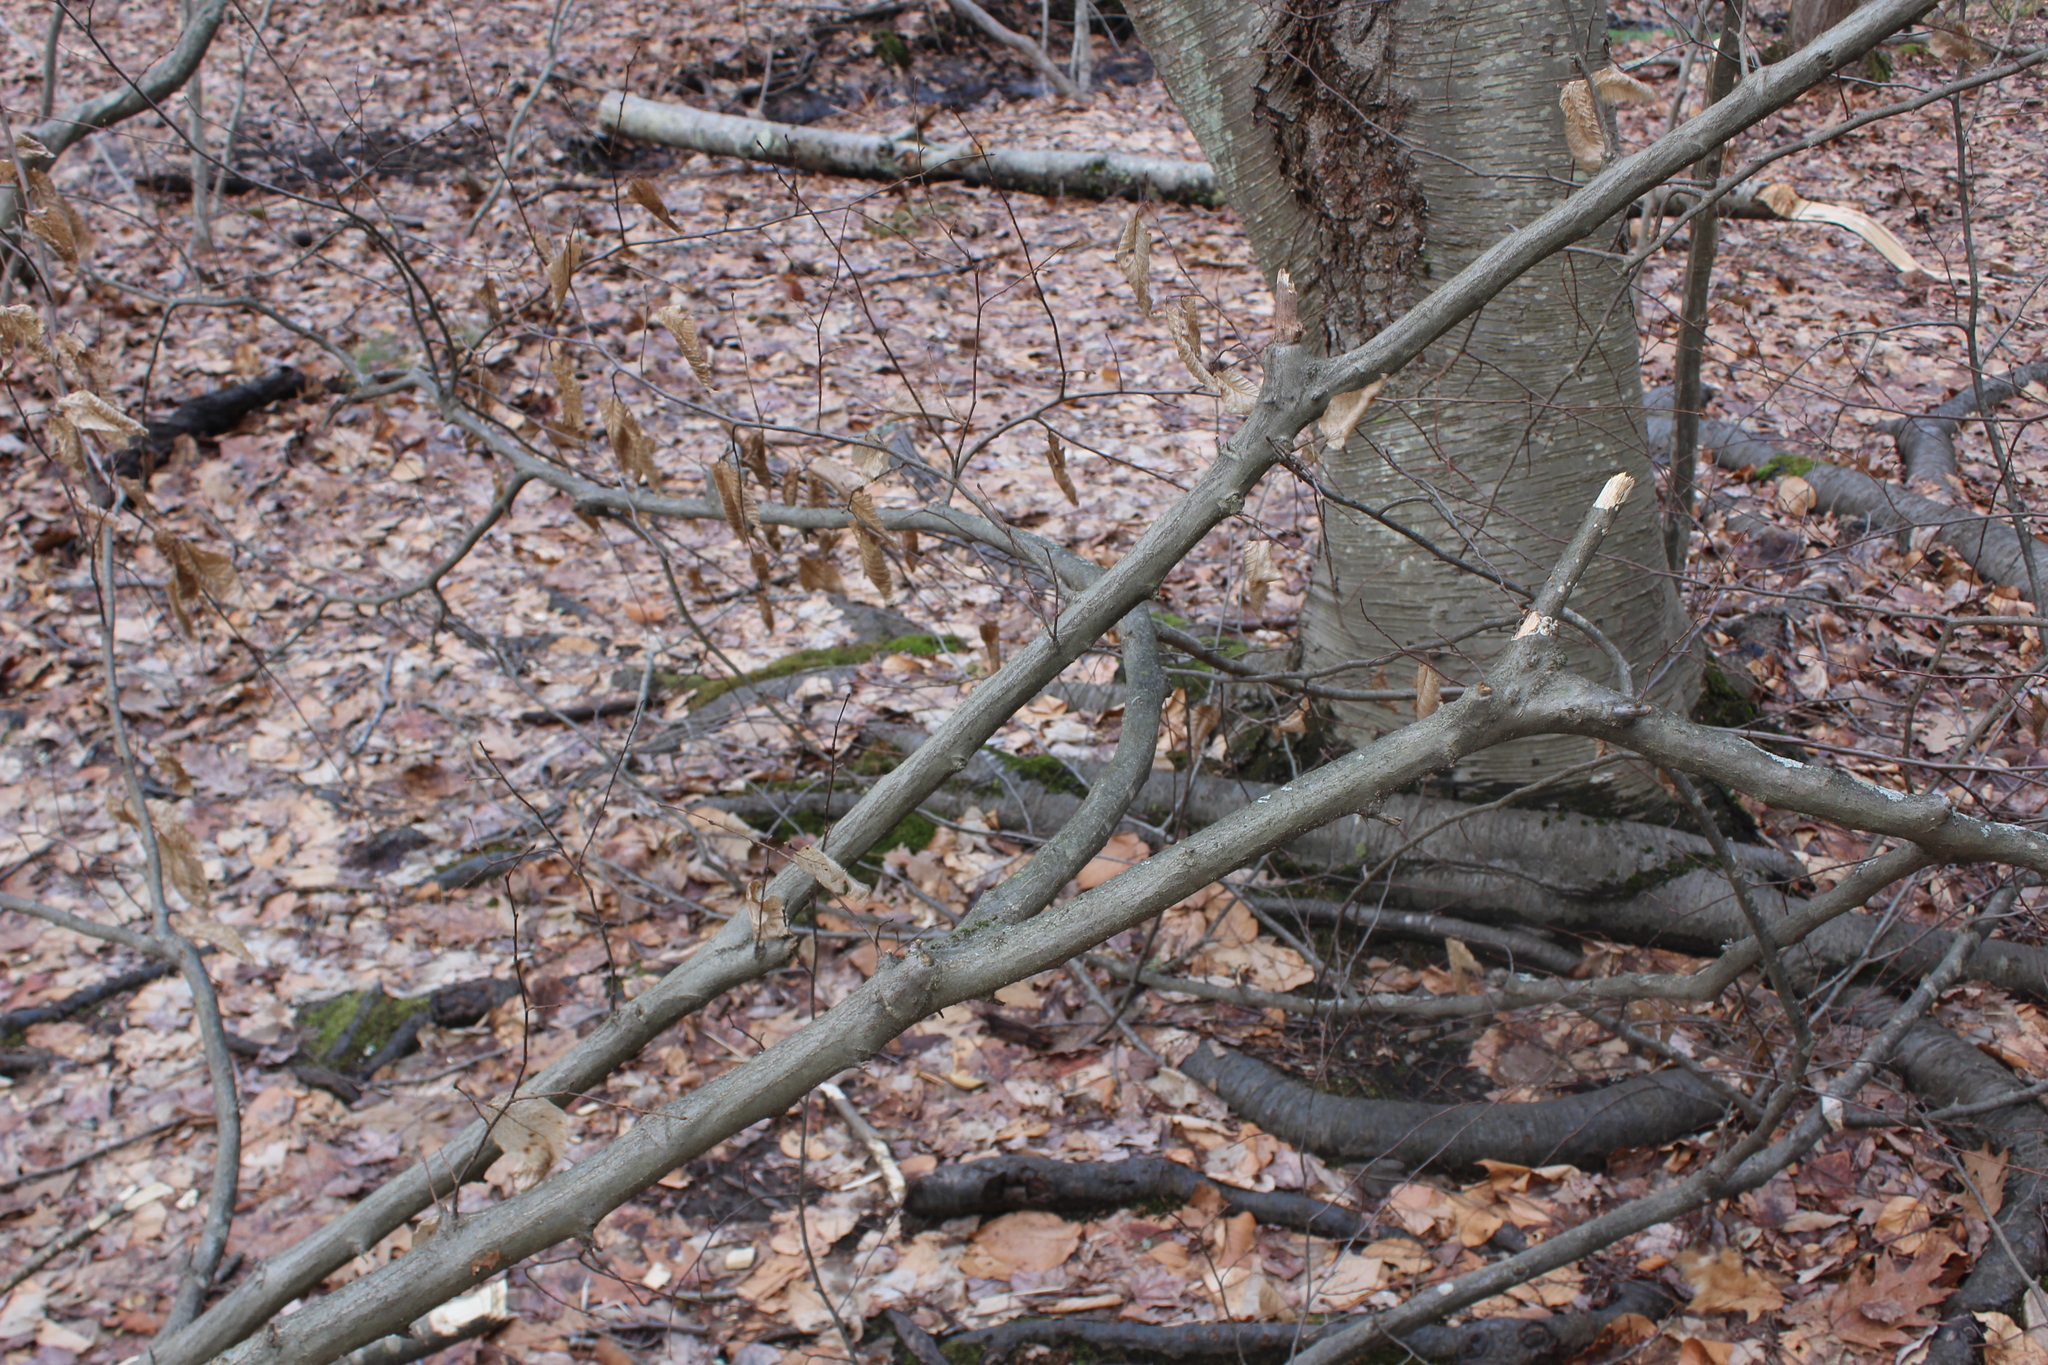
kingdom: Plantae
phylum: Tracheophyta
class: Magnoliopsida
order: Fagales
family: Betulaceae
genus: Betula
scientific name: Betula lenta
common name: Black birch
